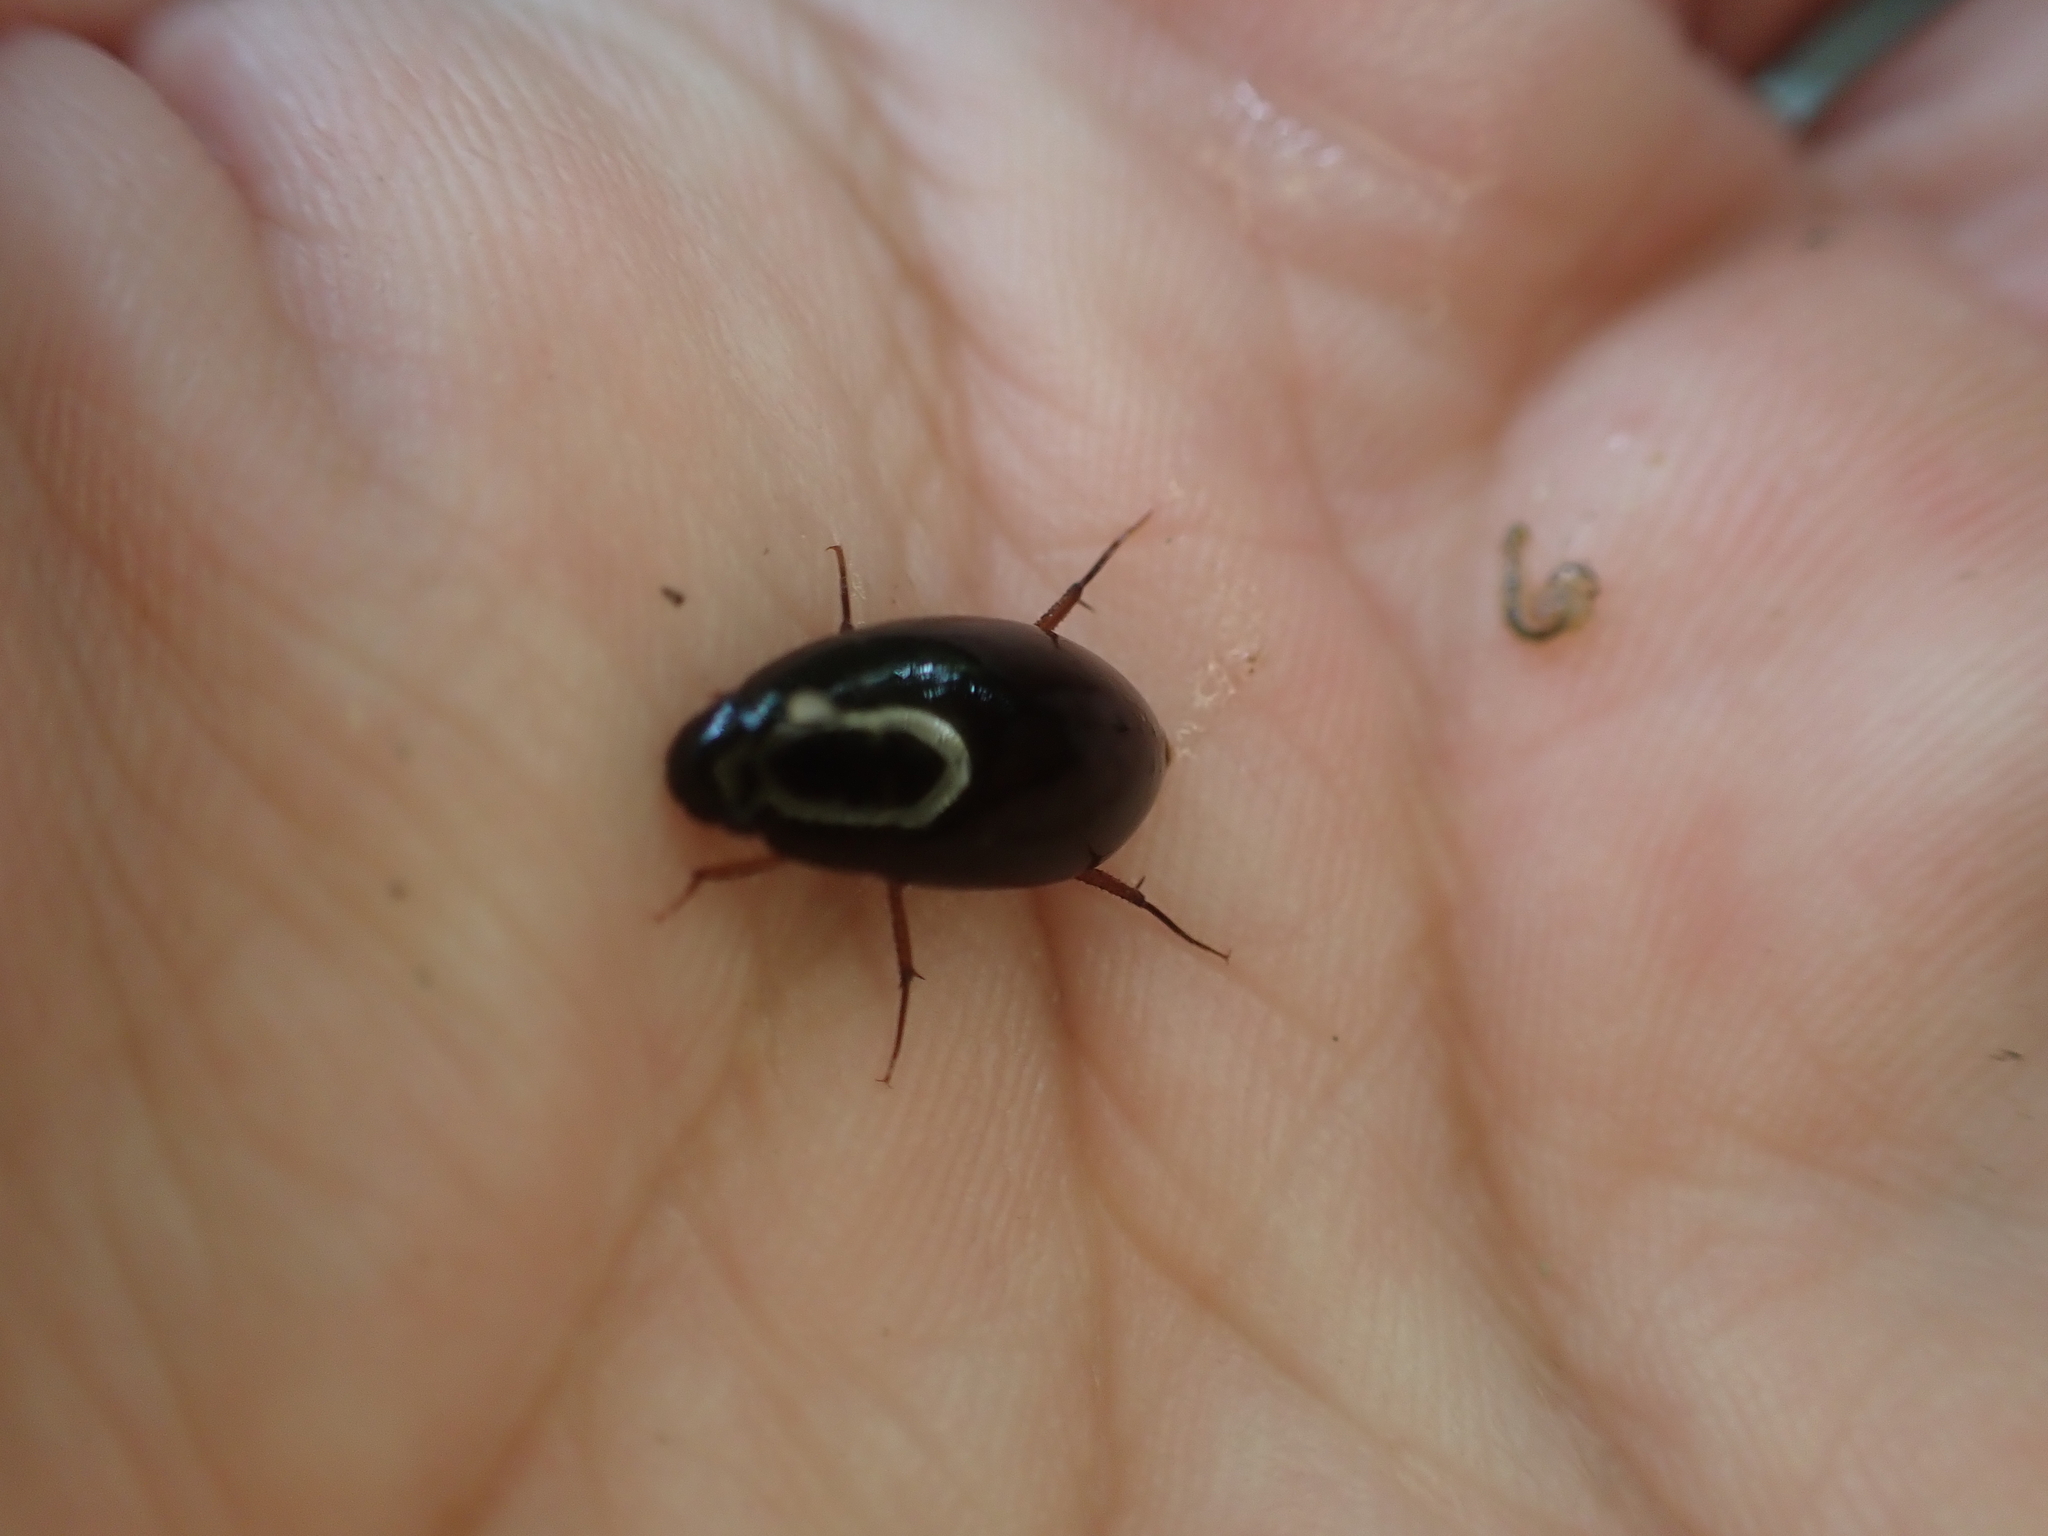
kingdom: Animalia
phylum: Arthropoda
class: Insecta
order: Coleoptera
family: Hydrophilidae
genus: Sternolophus
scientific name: Sternolophus rufipes
